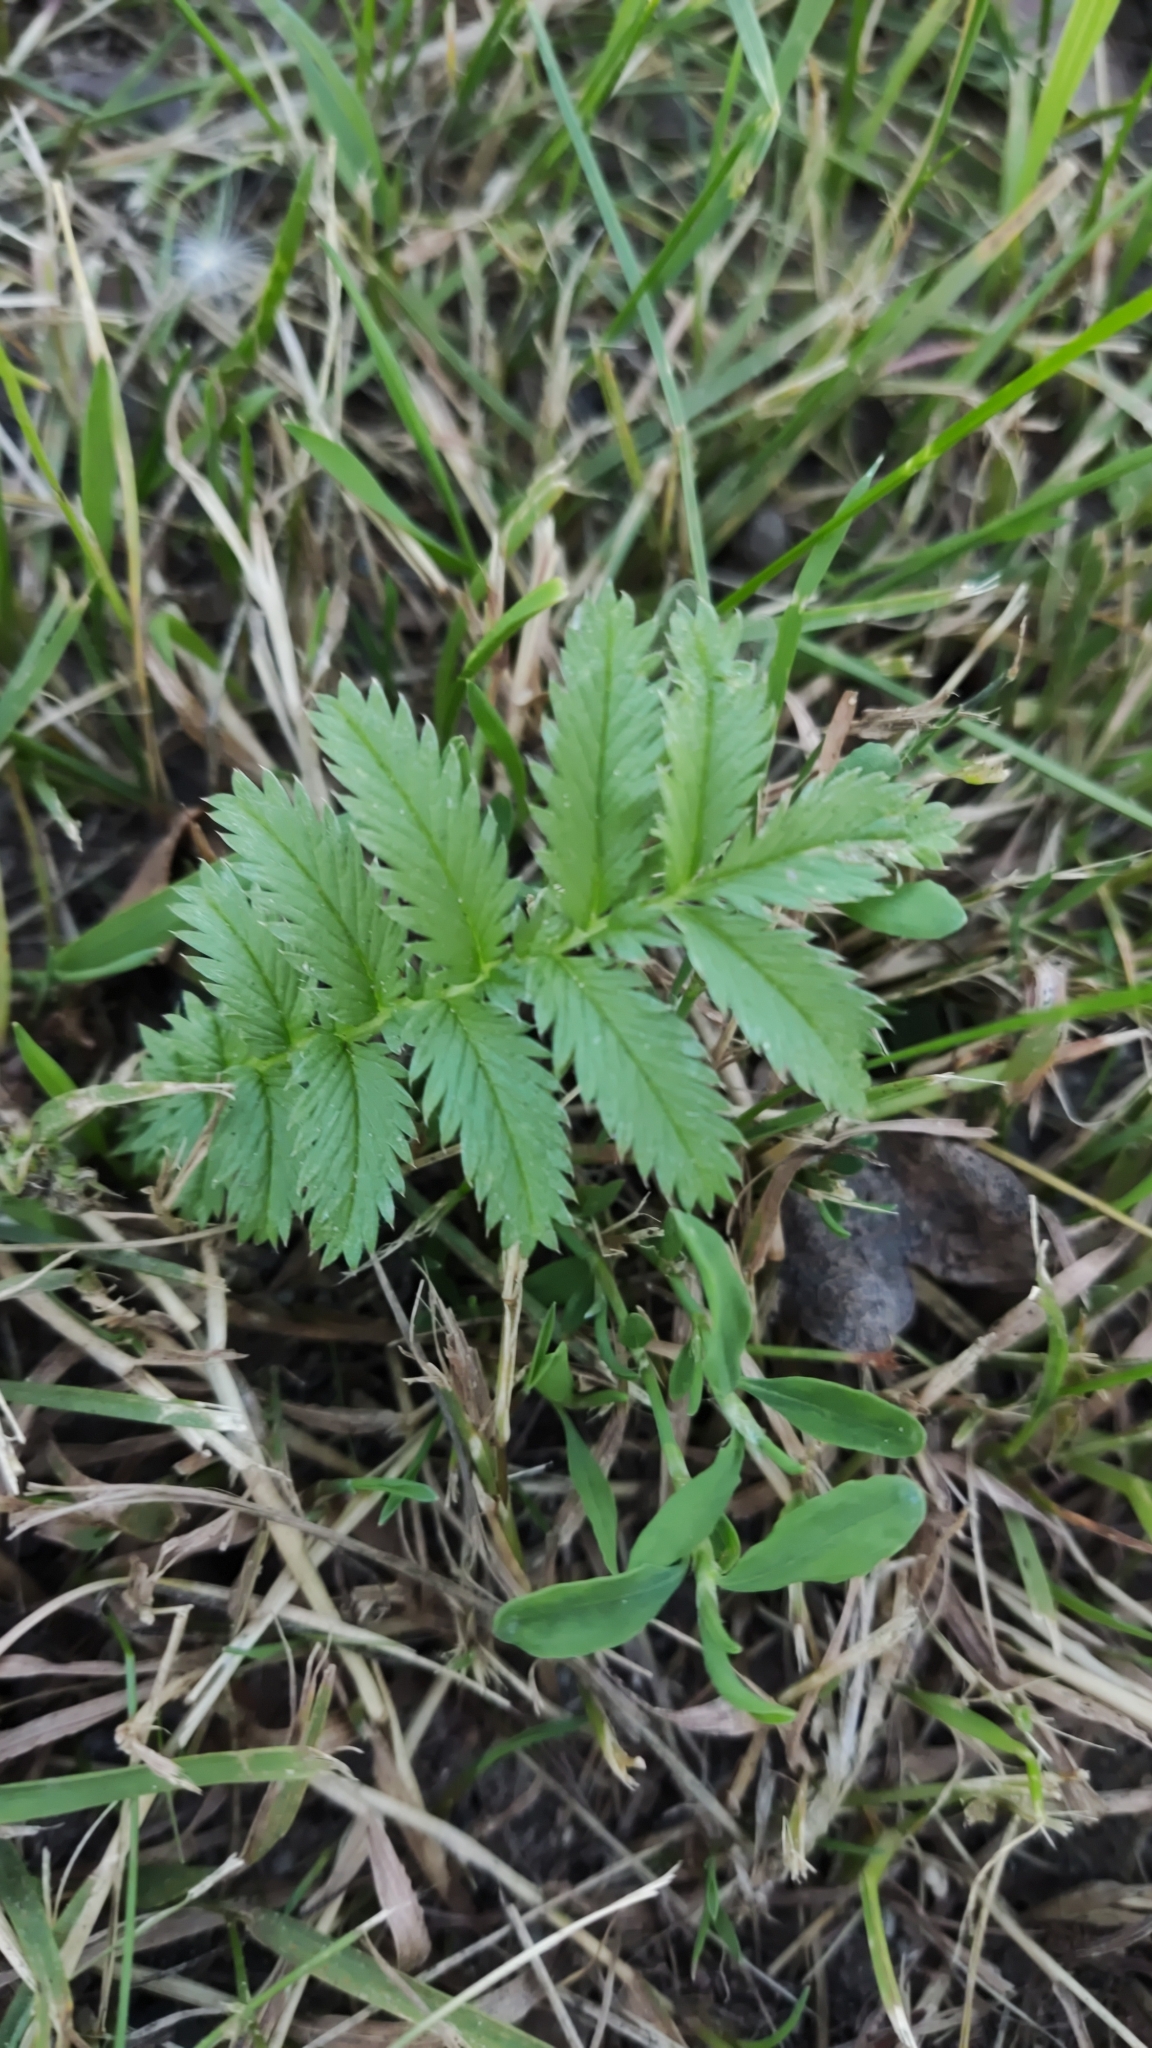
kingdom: Plantae
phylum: Tracheophyta
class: Magnoliopsida
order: Rosales
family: Rosaceae
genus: Argentina
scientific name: Argentina anserina
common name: Common silverweed
